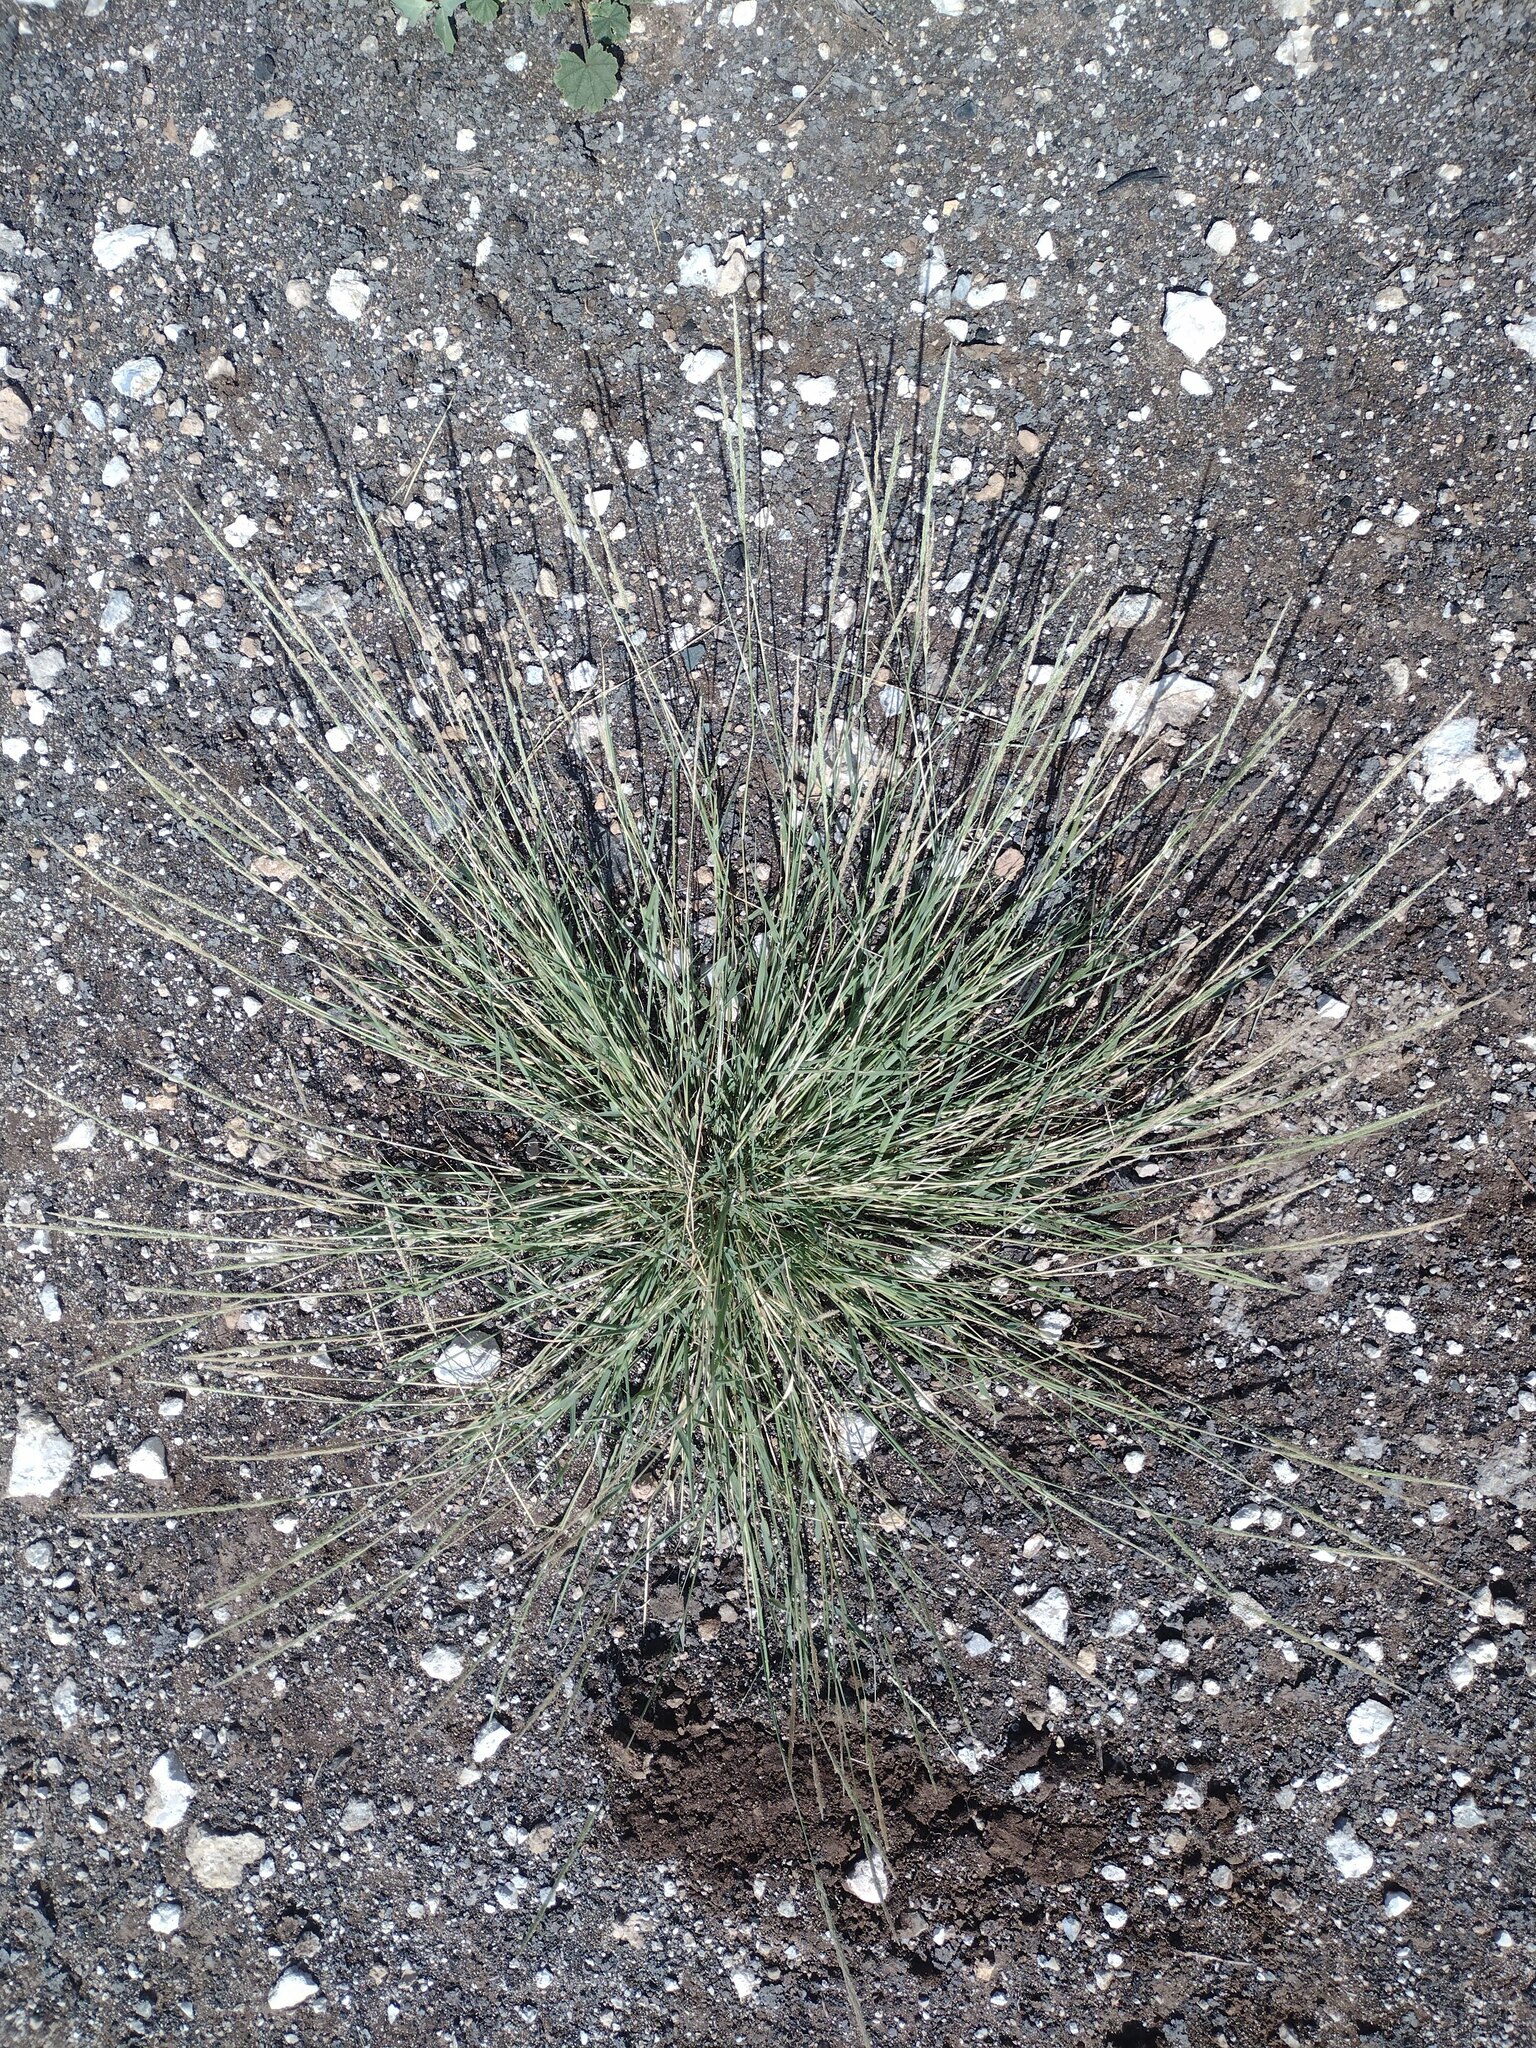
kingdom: Plantae
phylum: Tracheophyta
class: Liliopsida
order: Poales
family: Poaceae
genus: Sporobolus
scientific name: Sporobolus pyramidatus
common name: Whorled dropseed
